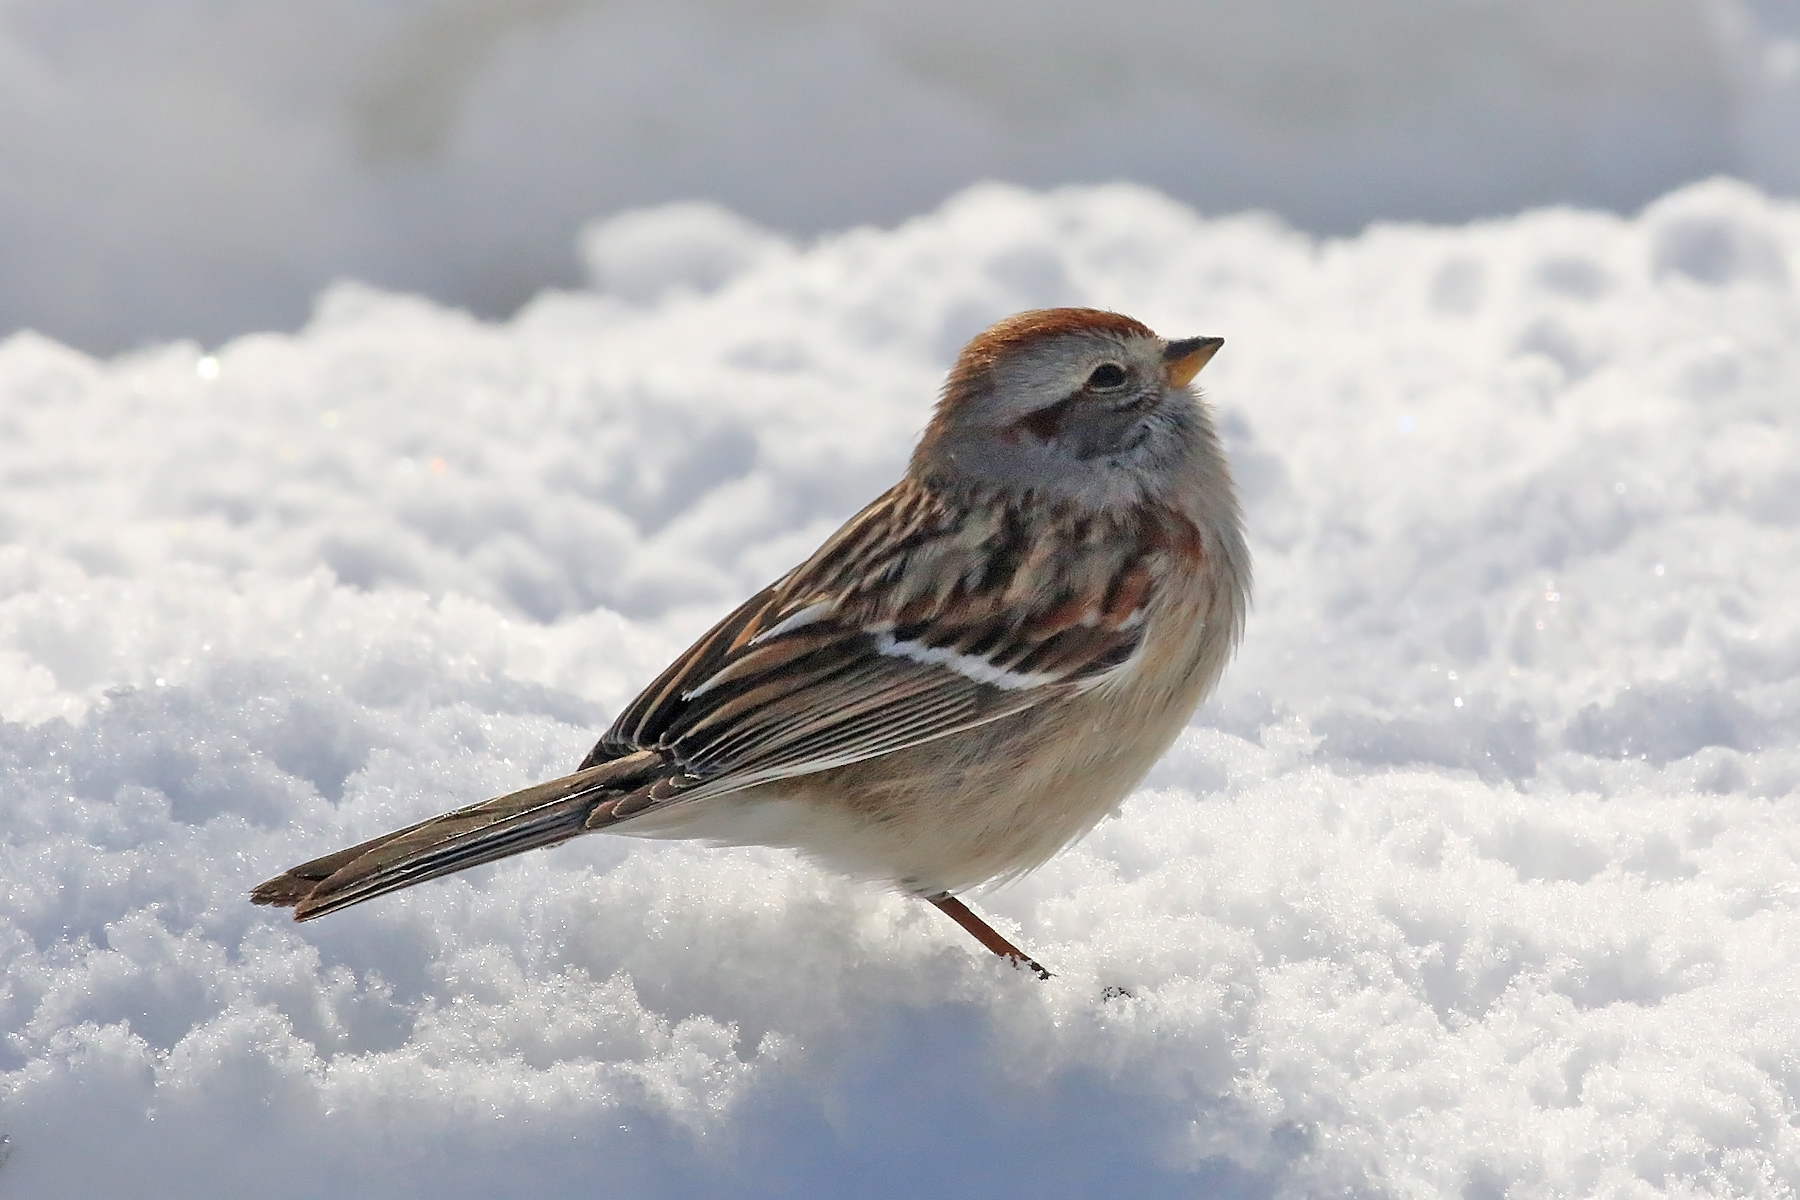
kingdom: Animalia
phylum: Chordata
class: Aves
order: Passeriformes
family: Passerellidae
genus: Spizelloides
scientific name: Spizelloides arborea
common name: American tree sparrow
